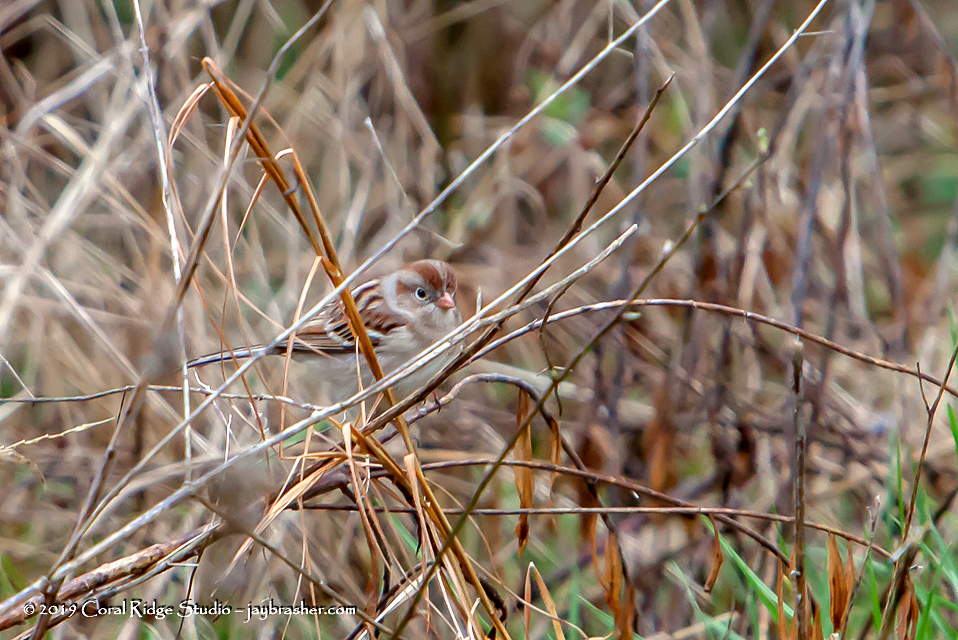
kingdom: Animalia
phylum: Chordata
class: Aves
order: Passeriformes
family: Passerellidae
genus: Spizella
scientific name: Spizella pusilla
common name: Field sparrow
